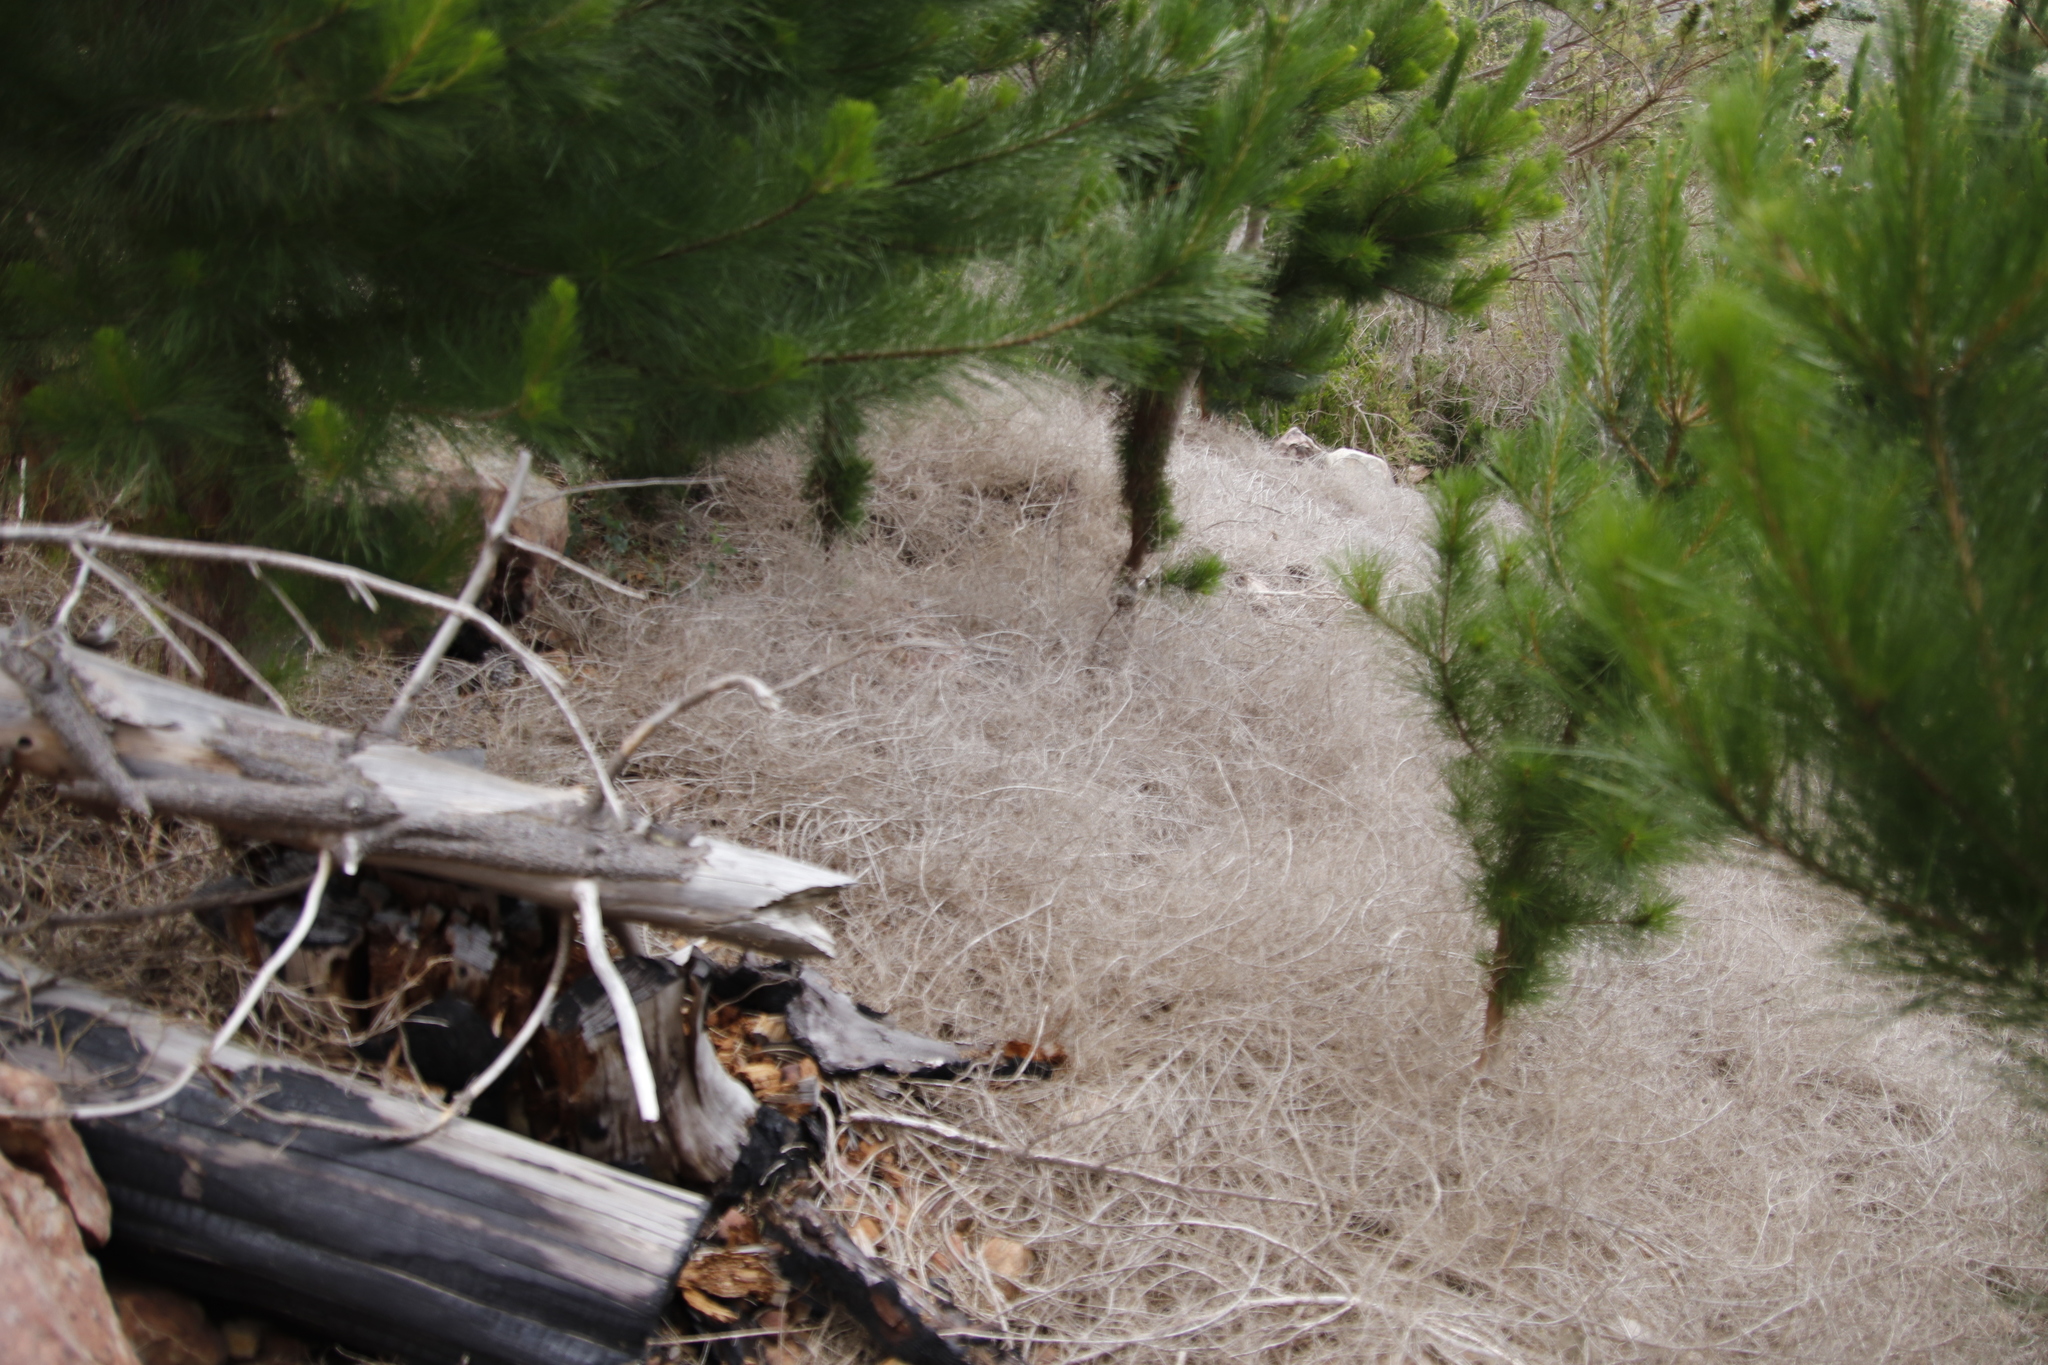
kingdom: Plantae
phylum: Tracheophyta
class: Pinopsida
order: Pinales
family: Pinaceae
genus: Pinus
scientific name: Pinus radiata
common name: Monterey pine
